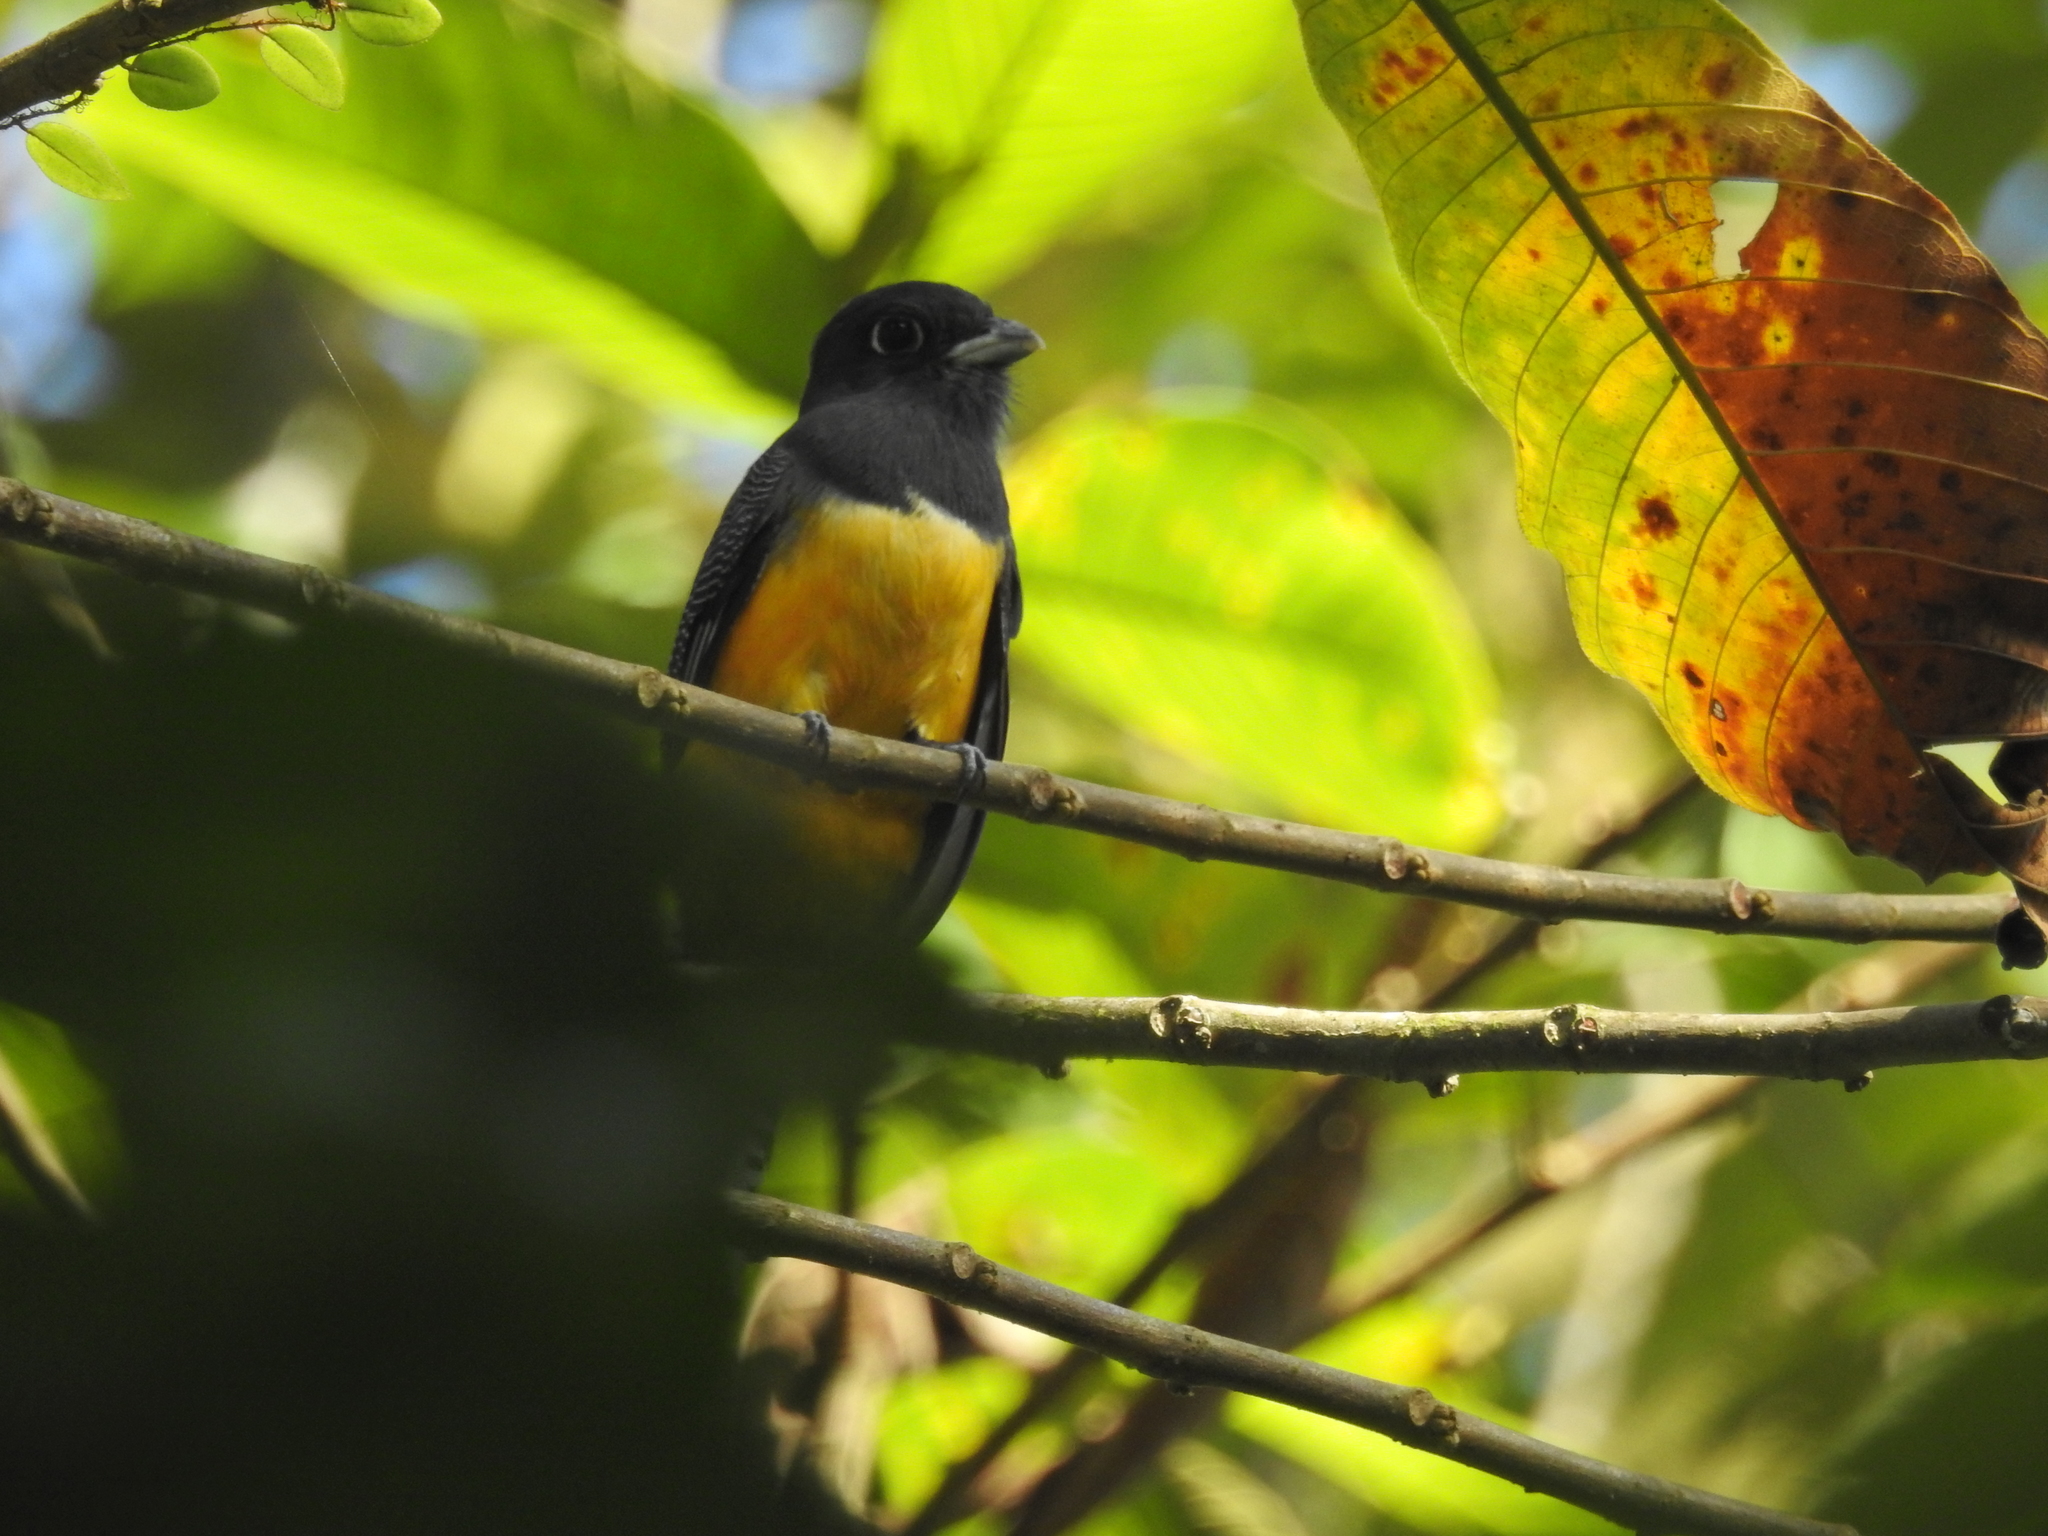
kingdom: Animalia
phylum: Chordata
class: Aves
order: Trogoniformes
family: Trogonidae
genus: Trogon
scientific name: Trogon caligatus
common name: Gartered trogon
